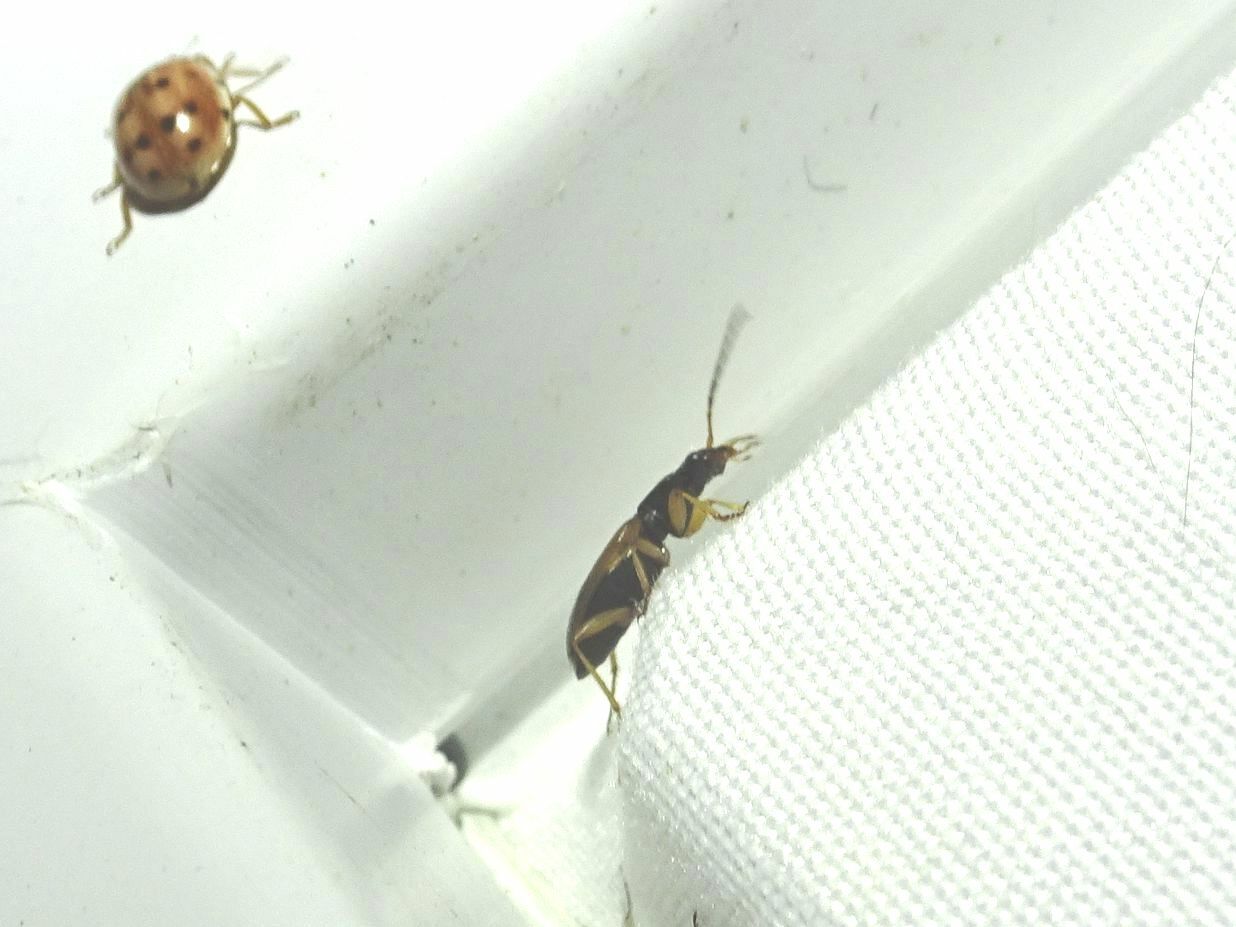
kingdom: Animalia
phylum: Arthropoda
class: Insecta
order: Coleoptera
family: Carabidae
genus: Anchomenus
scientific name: Anchomenus dorsalis
